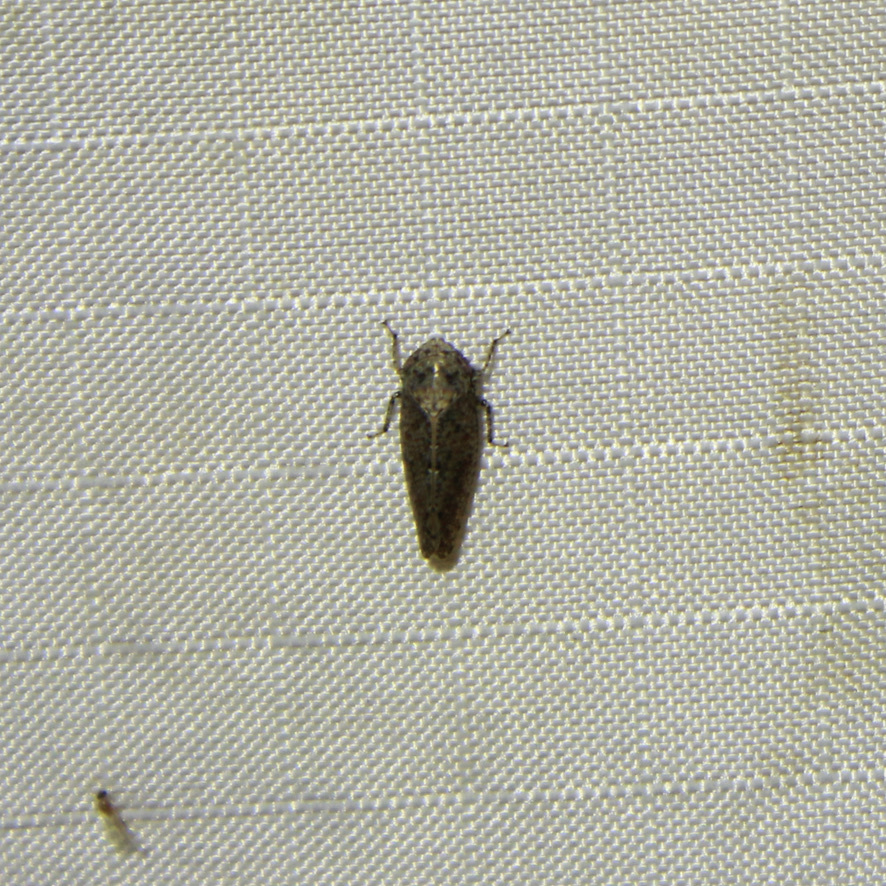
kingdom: Animalia
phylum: Arthropoda
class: Insecta
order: Hemiptera
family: Cicadellidae
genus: Excultanus
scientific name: Excultanus excultus
